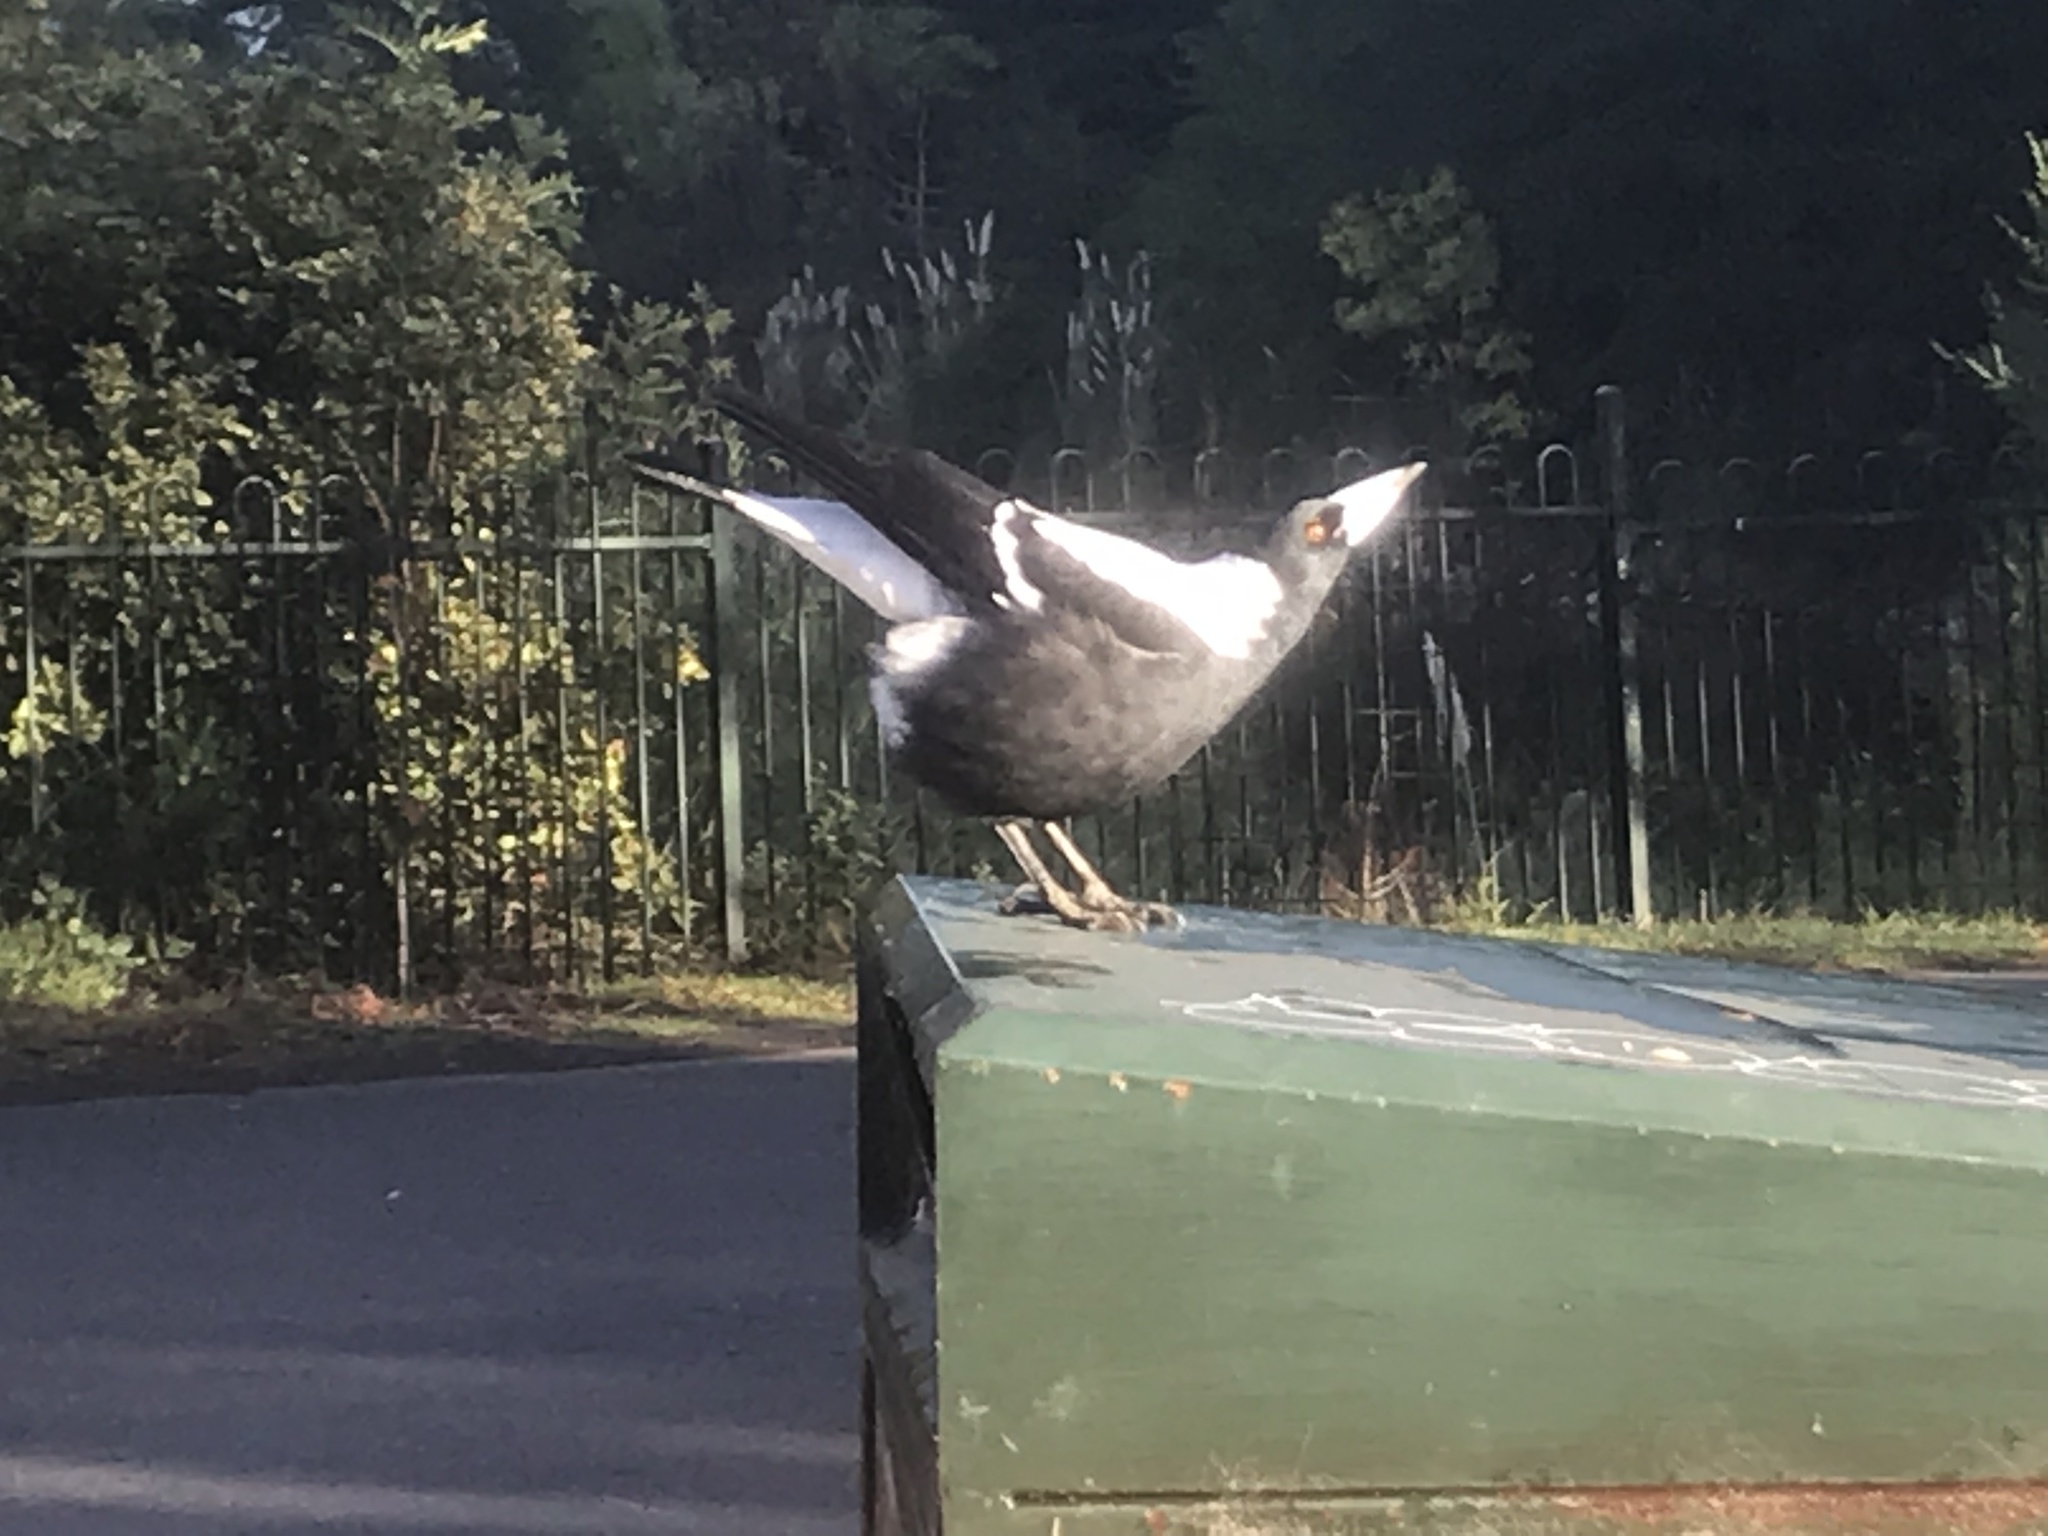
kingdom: Animalia
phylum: Chordata
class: Aves
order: Passeriformes
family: Cracticidae
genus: Gymnorhina
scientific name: Gymnorhina tibicen
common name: Australian magpie
